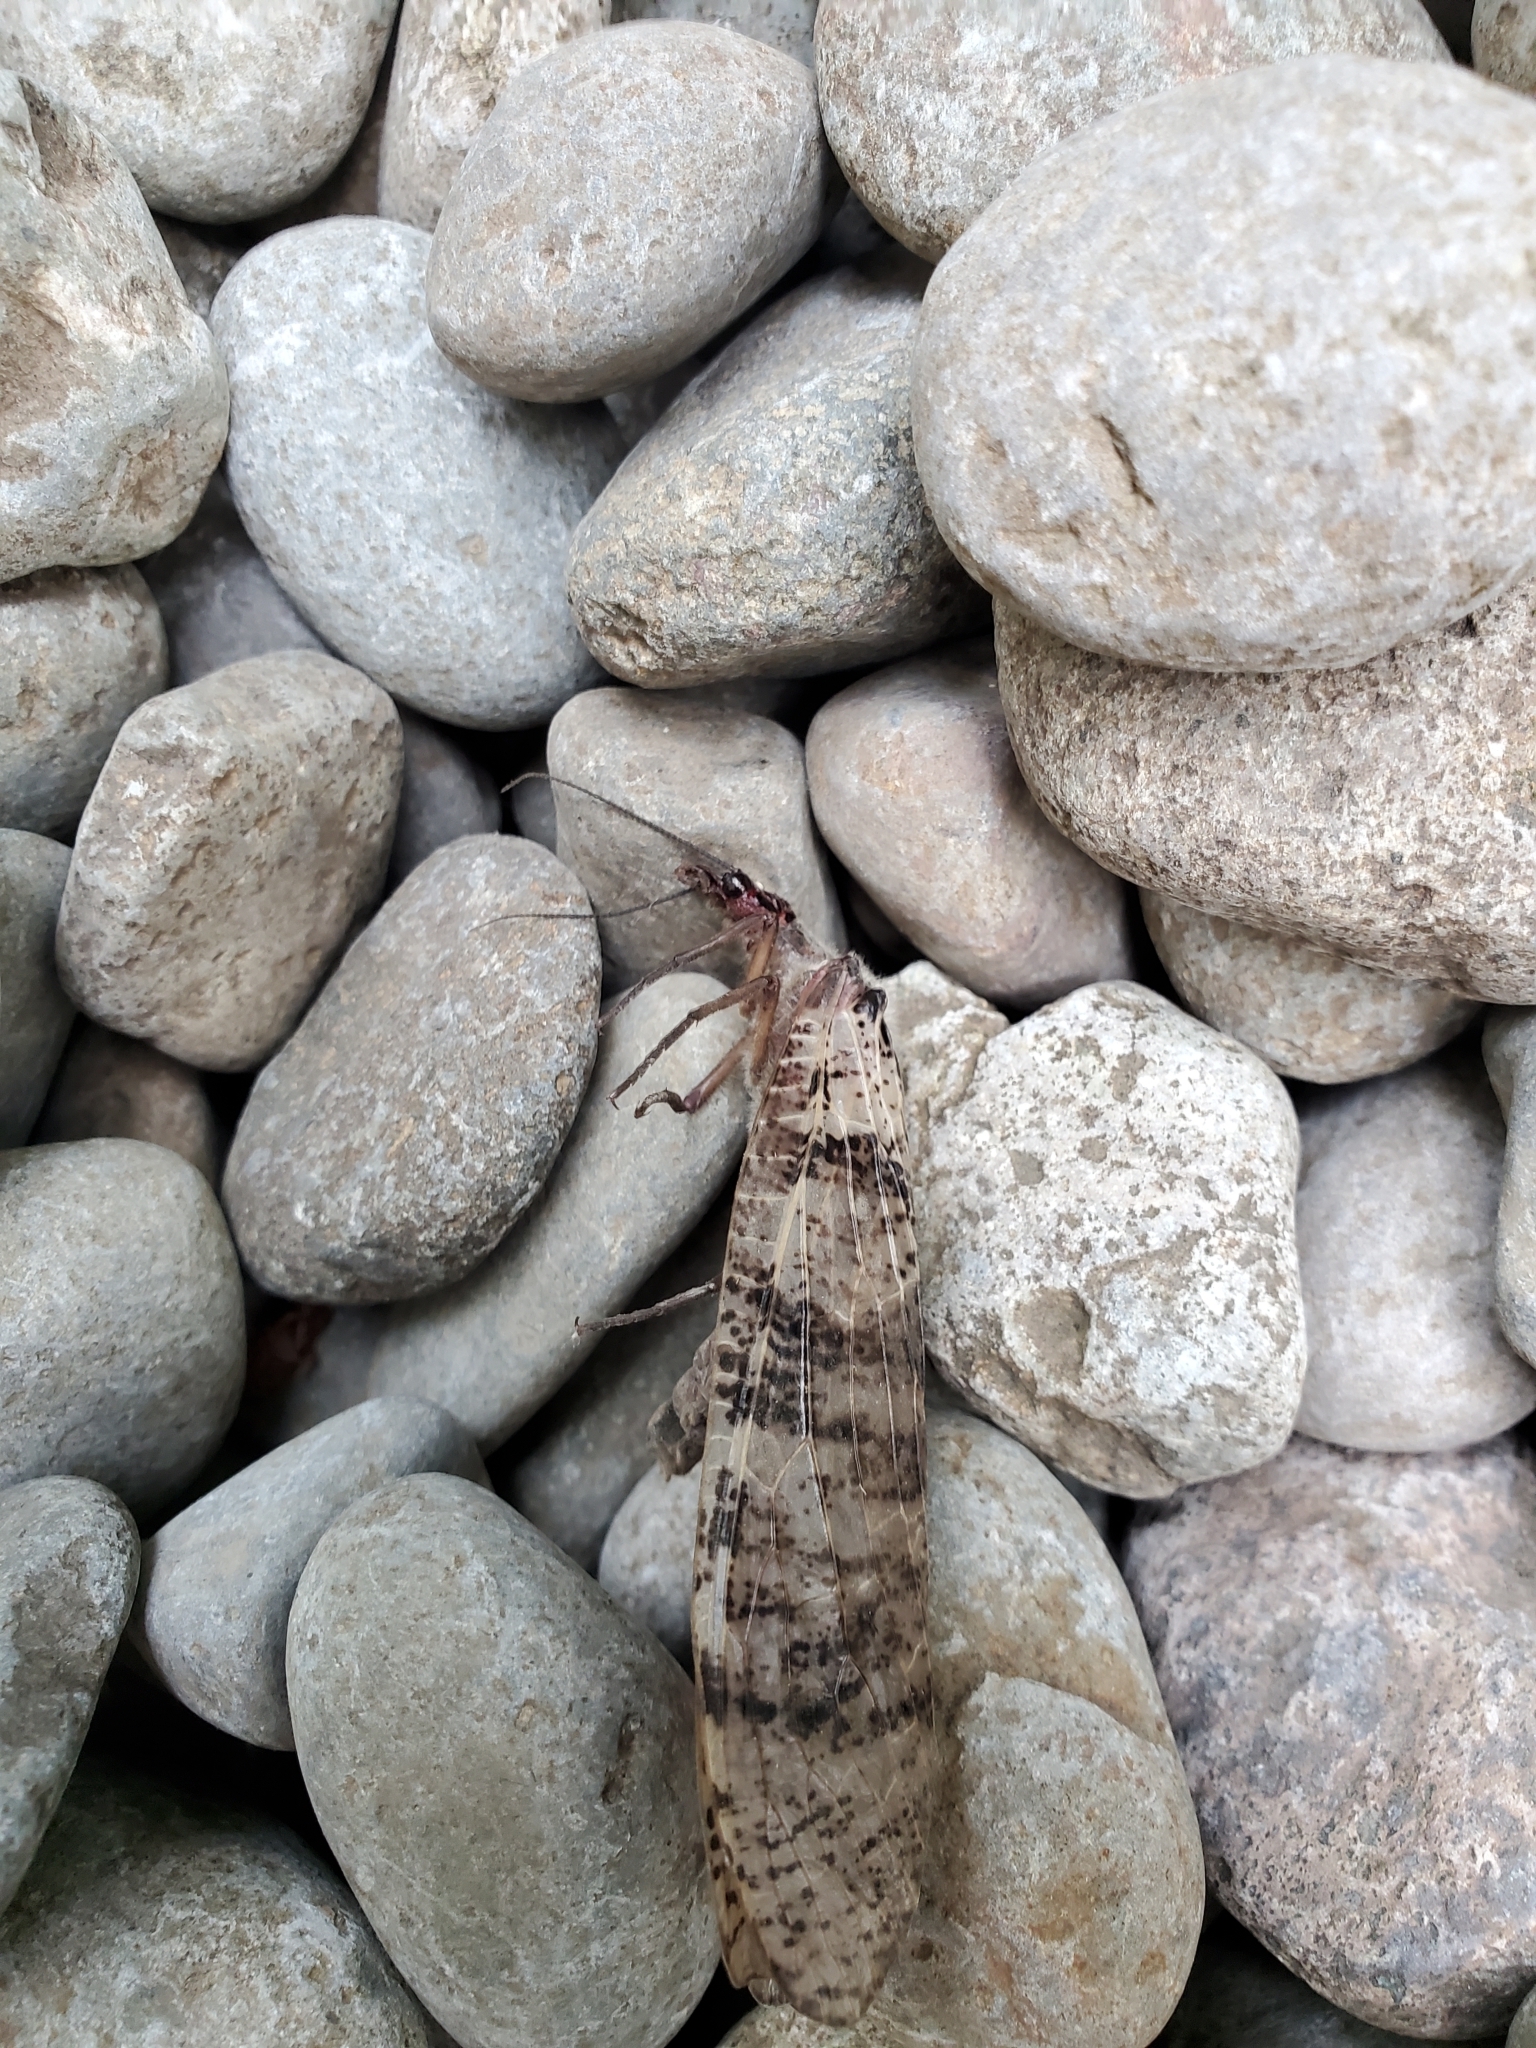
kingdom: Animalia
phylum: Arthropoda
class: Insecta
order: Megaloptera
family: Corydalidae
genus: Dysmicohermes
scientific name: Dysmicohermes disjunctus
